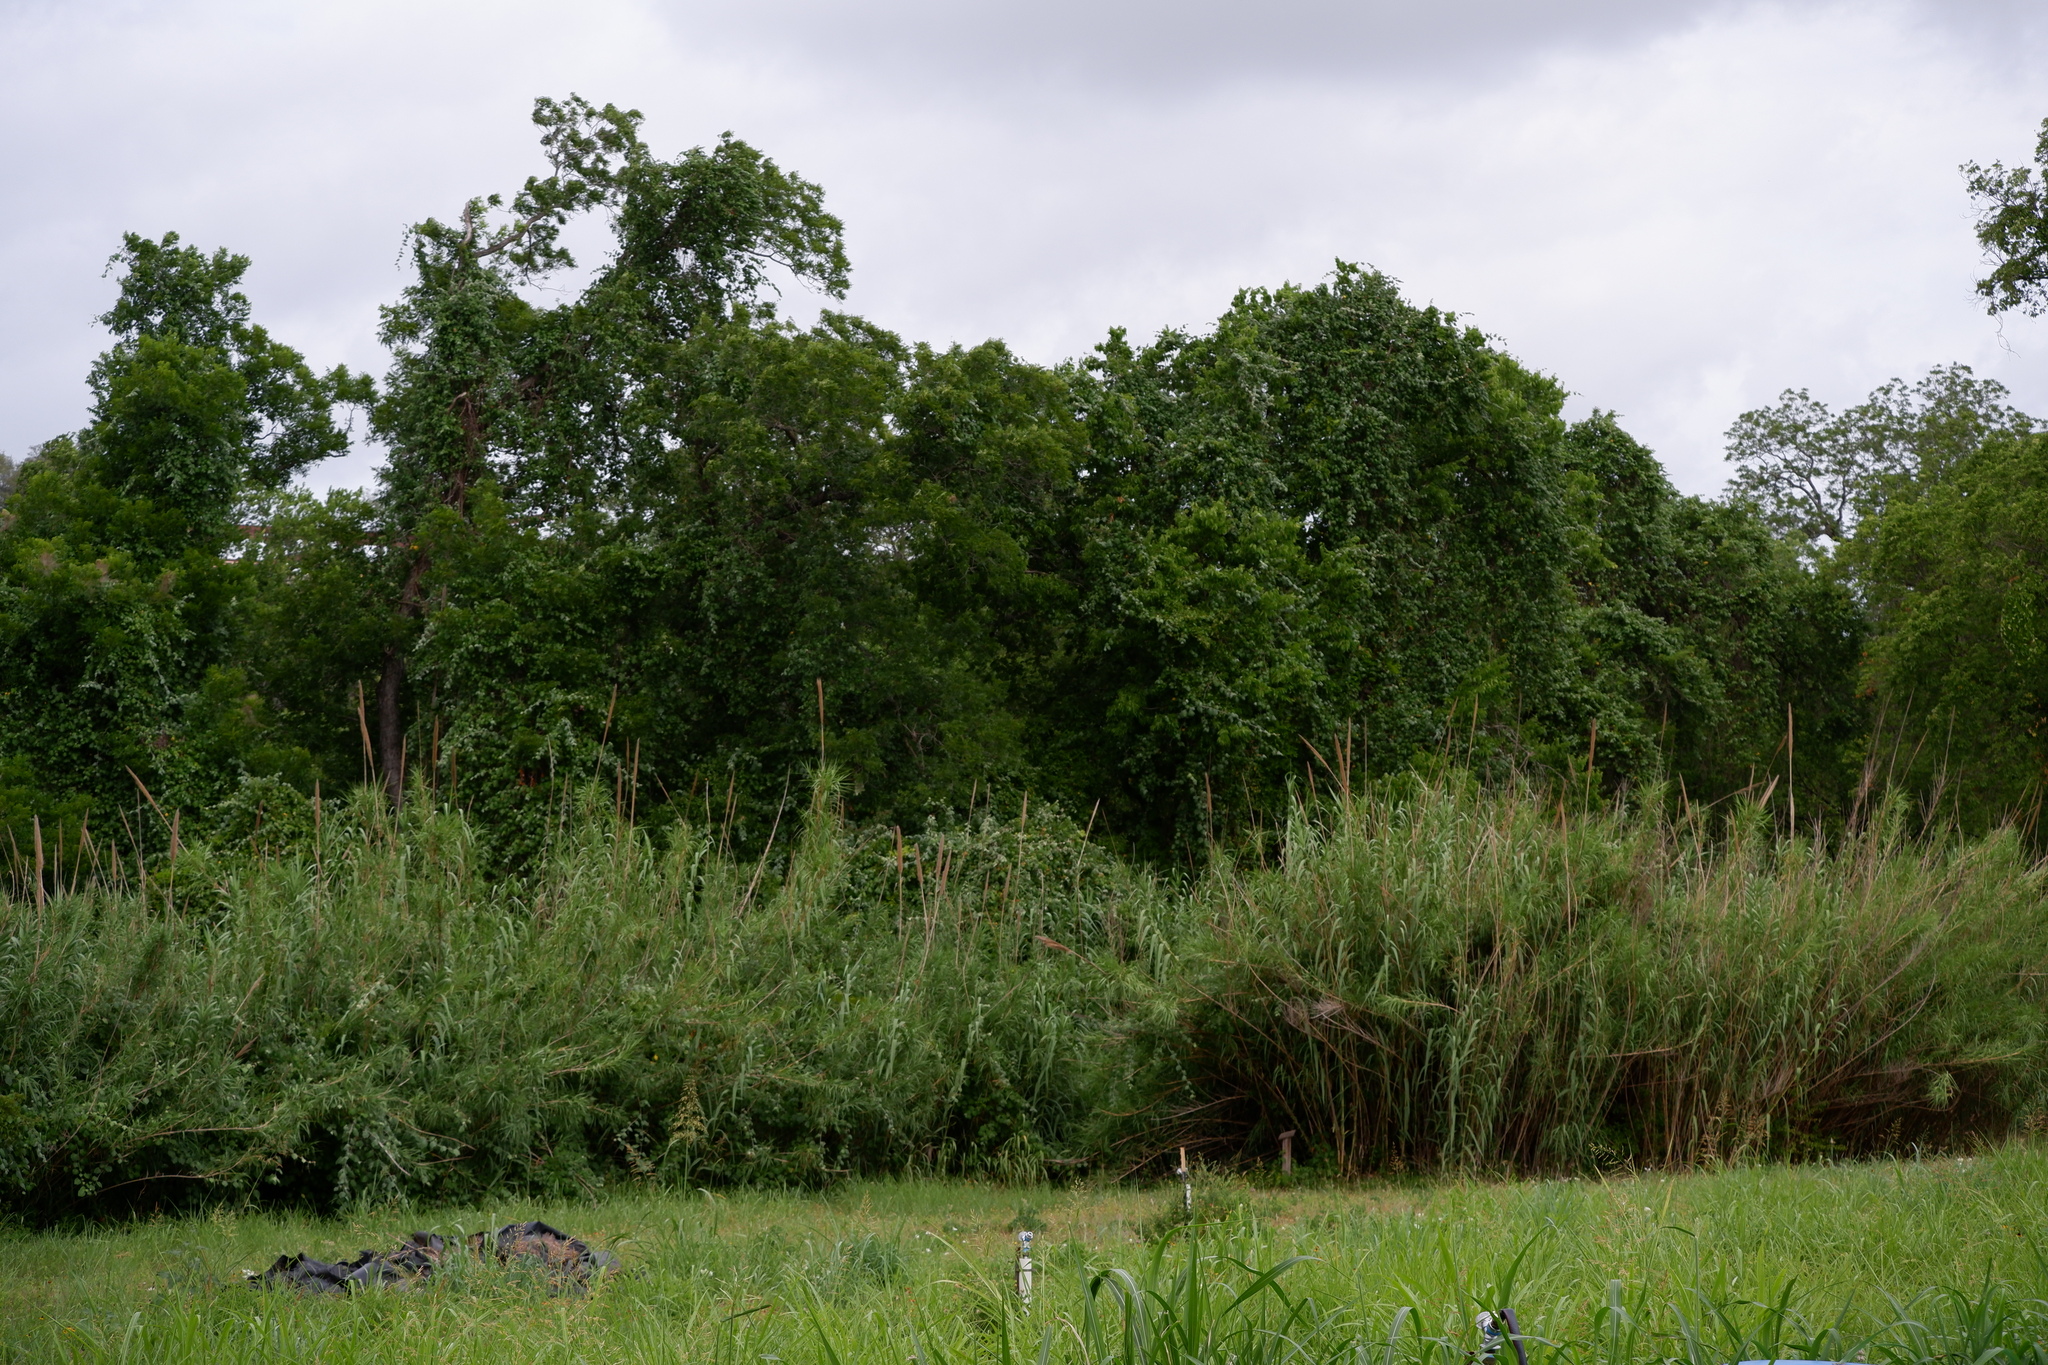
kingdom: Plantae
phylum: Tracheophyta
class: Liliopsida
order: Poales
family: Poaceae
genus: Arundo
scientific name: Arundo donax
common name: Giant reed
